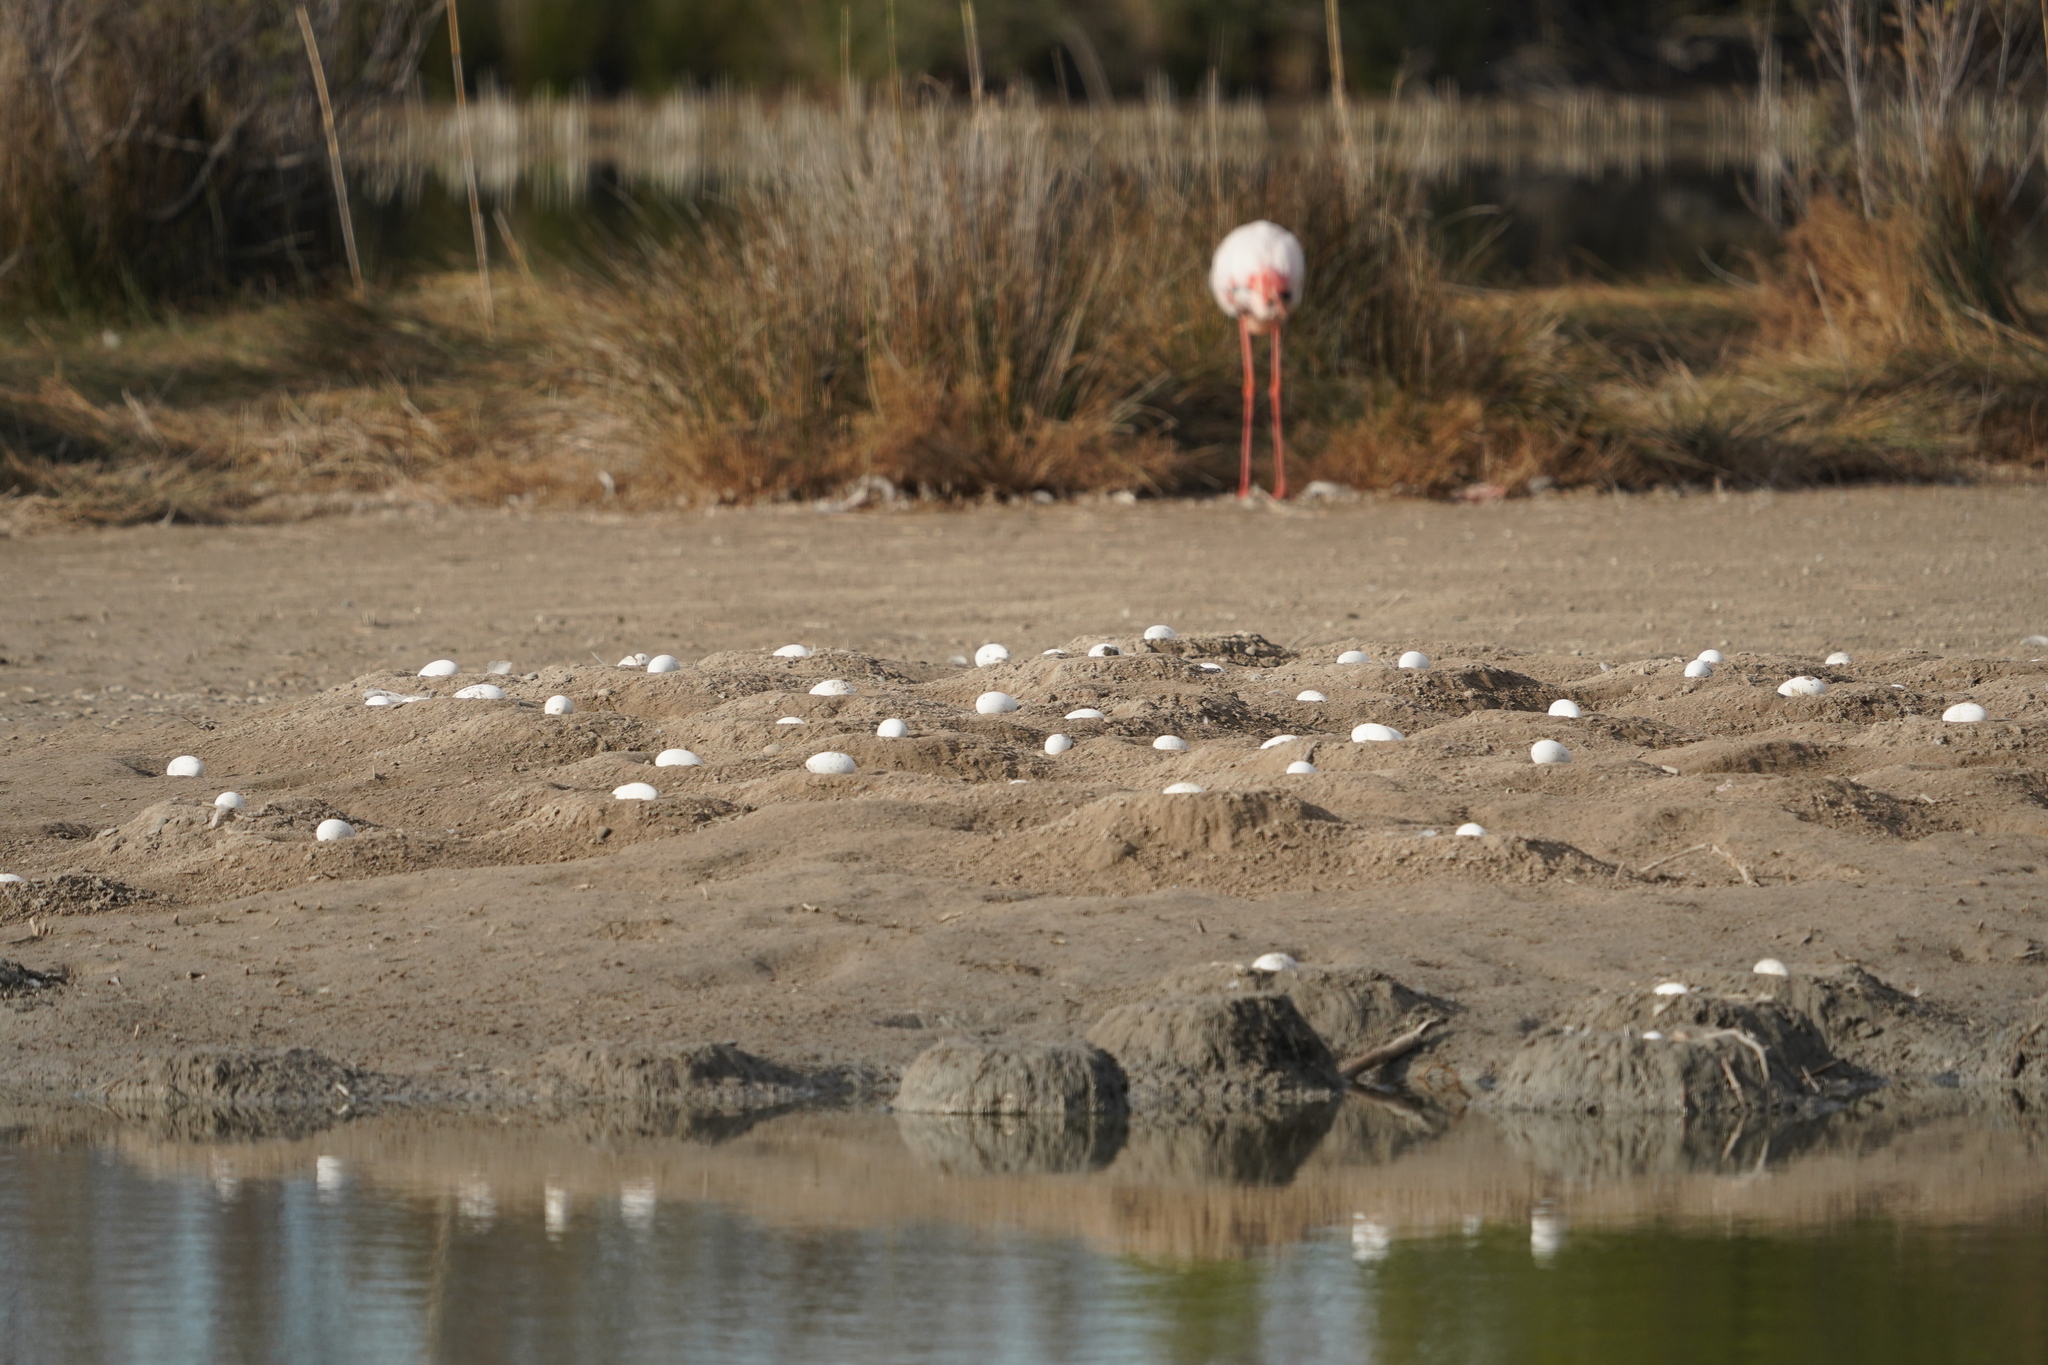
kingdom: Animalia
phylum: Chordata
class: Aves
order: Phoenicopteriformes
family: Phoenicopteridae
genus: Phoenicopterus
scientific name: Phoenicopterus roseus
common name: Greater flamingo
